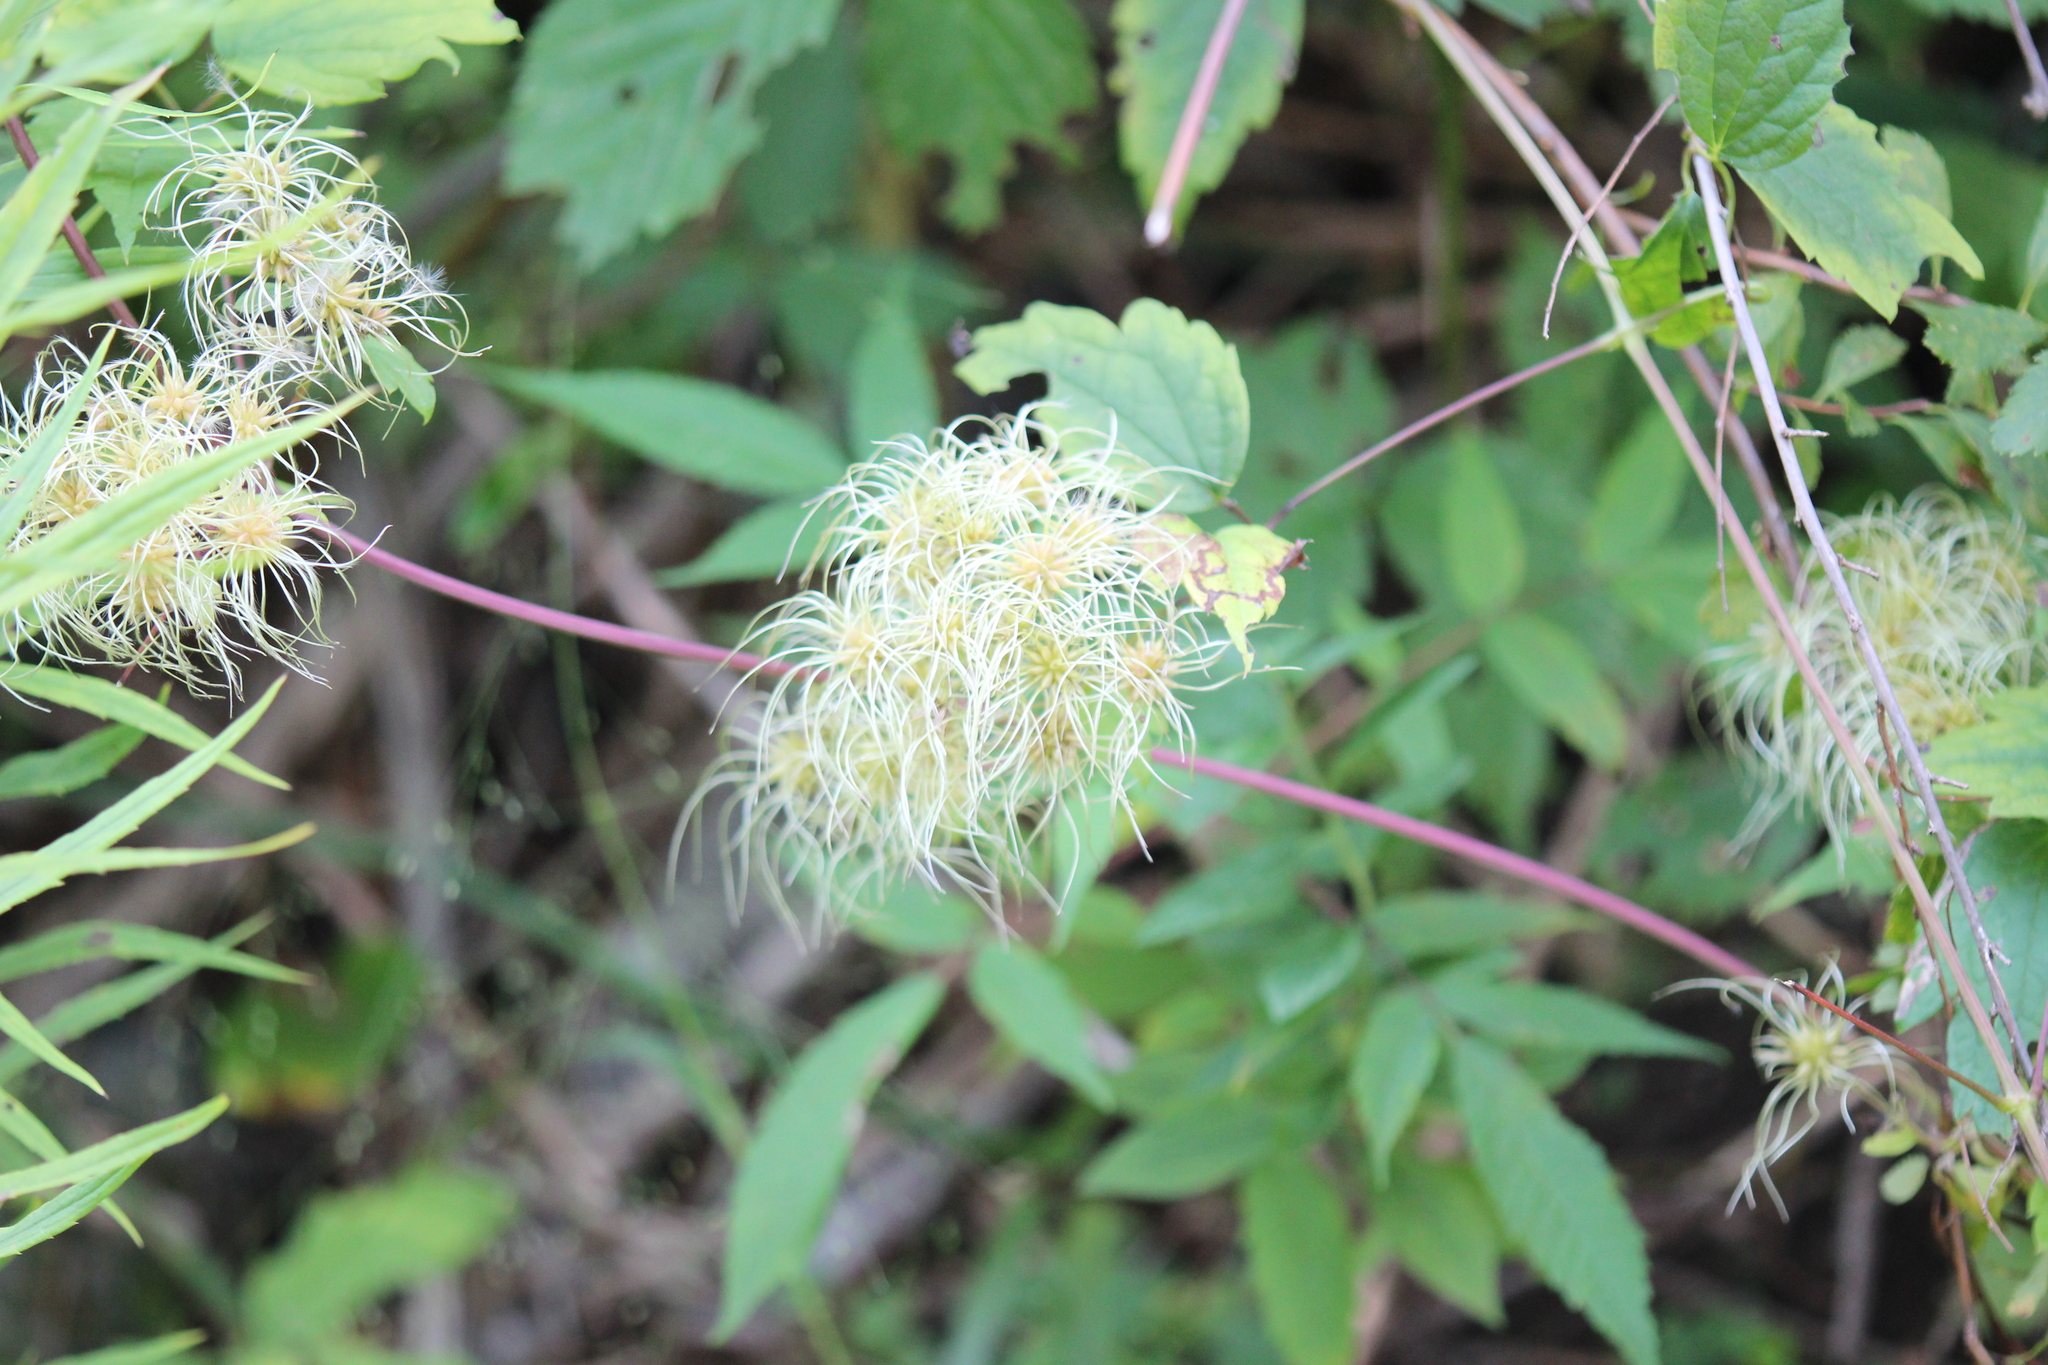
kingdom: Plantae
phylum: Tracheophyta
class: Magnoliopsida
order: Ranunculales
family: Ranunculaceae
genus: Clematis
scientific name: Clematis virginiana
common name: Virgin's-bower
